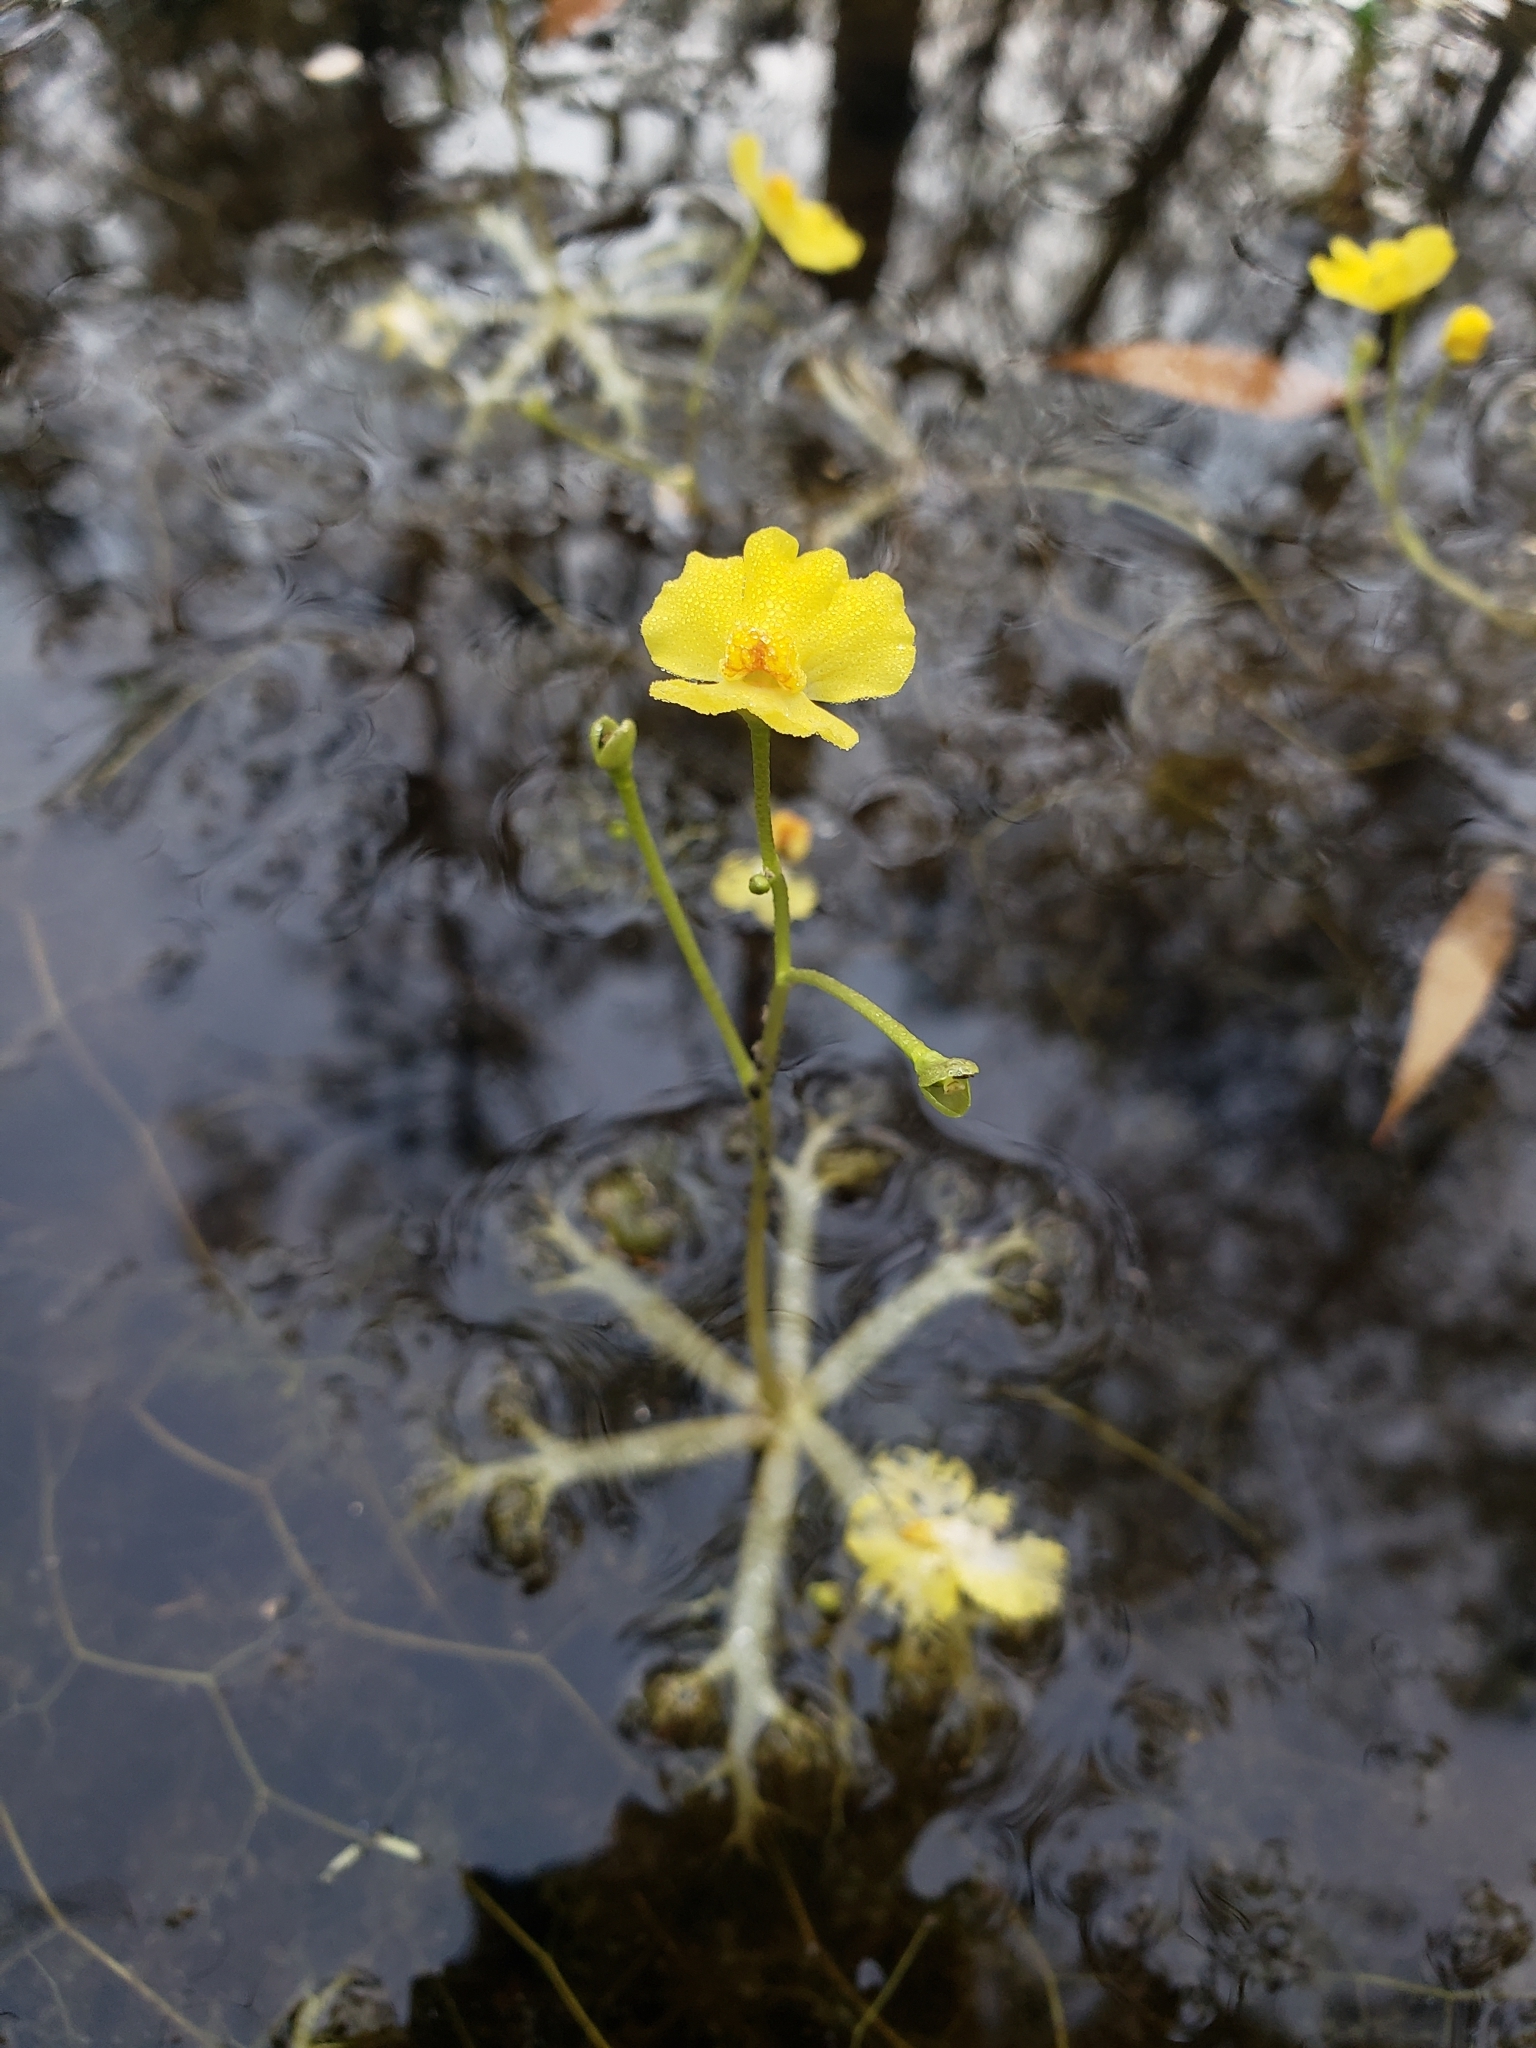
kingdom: Plantae
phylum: Tracheophyta
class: Magnoliopsida
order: Lamiales
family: Lentibulariaceae
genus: Utricularia
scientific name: Utricularia radiata
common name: Floating bladderwort
